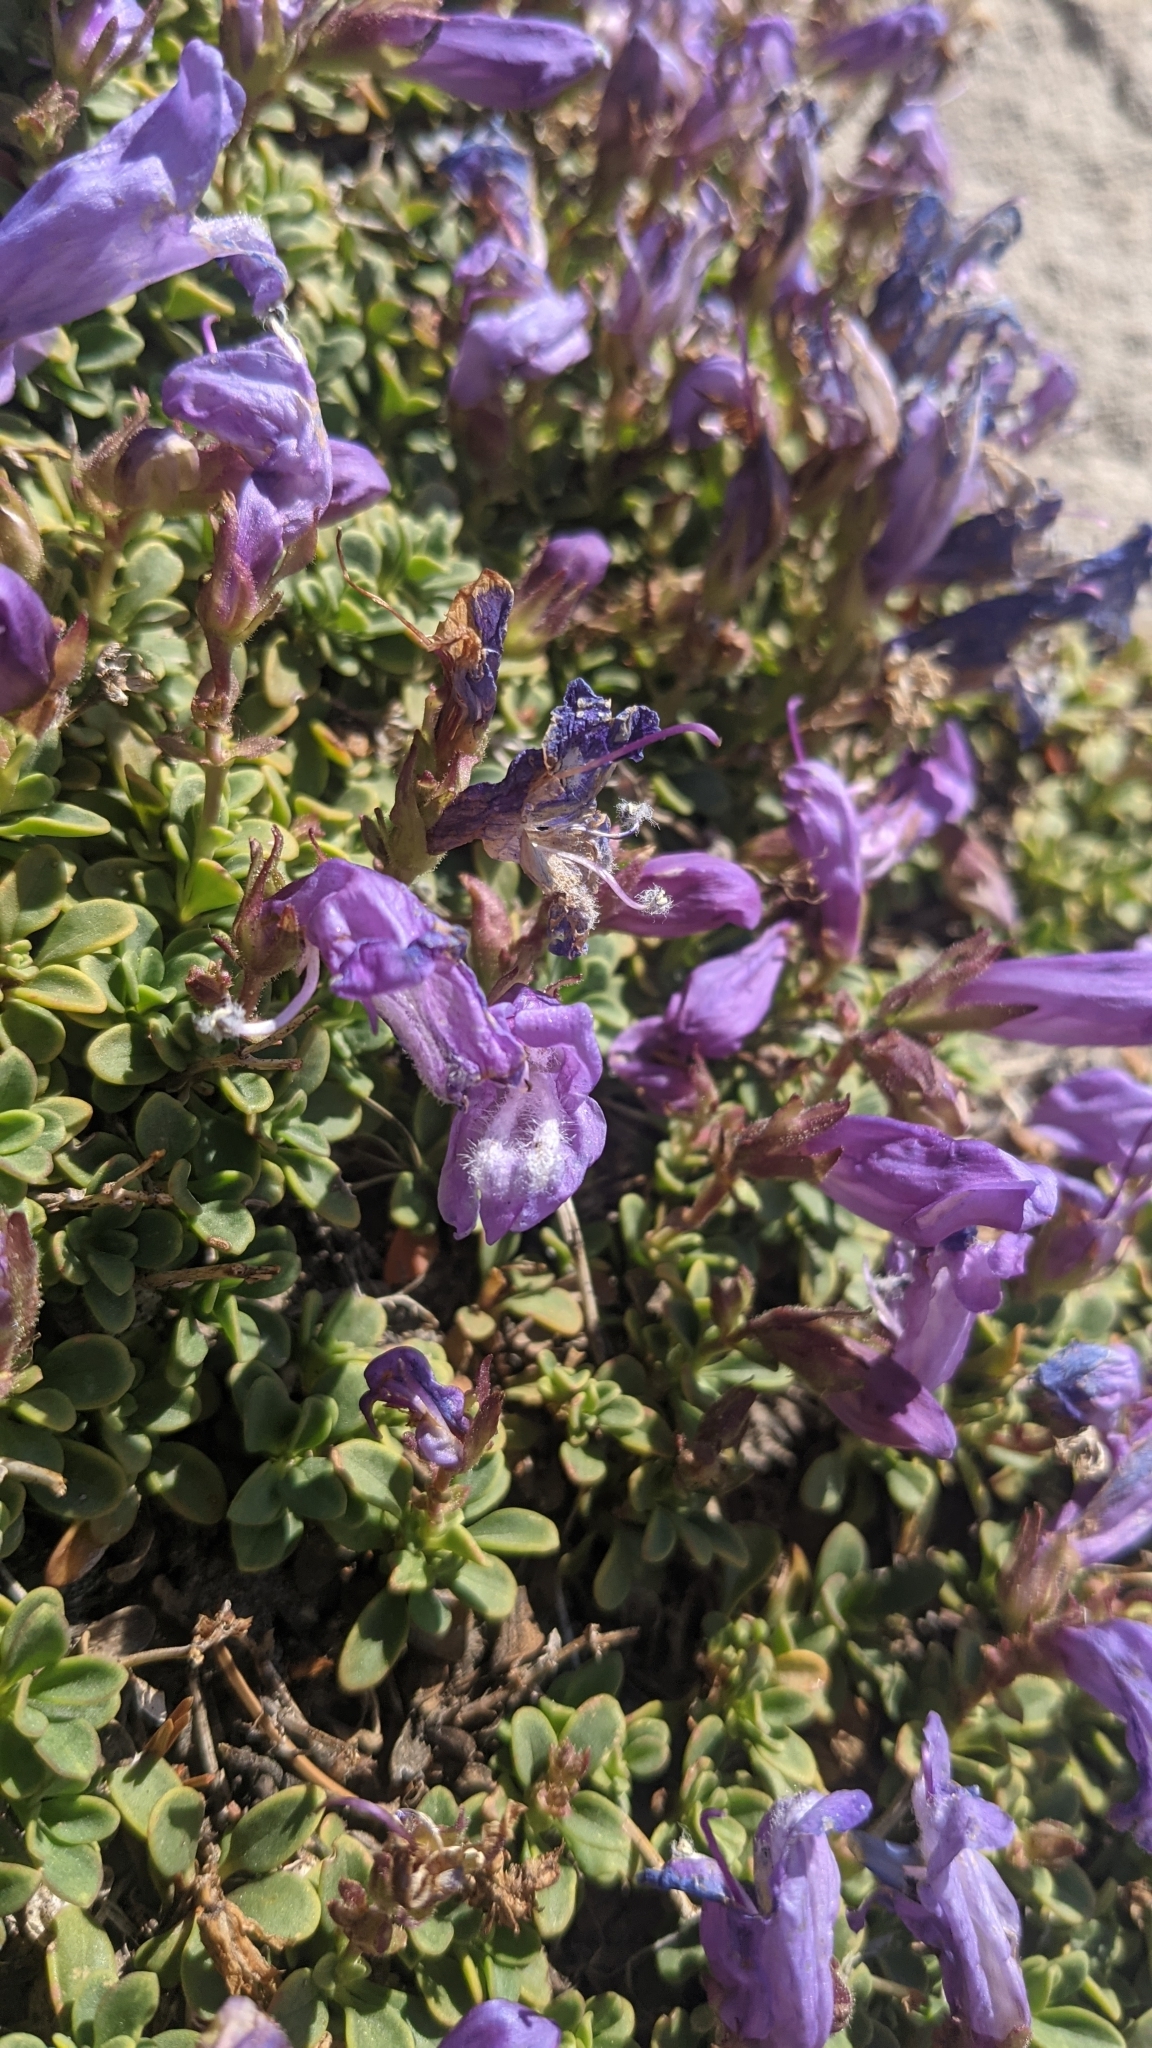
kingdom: Plantae
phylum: Tracheophyta
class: Magnoliopsida
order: Lamiales
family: Plantaginaceae
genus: Penstemon
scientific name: Penstemon davidsonii
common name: Davidson's penstemon
